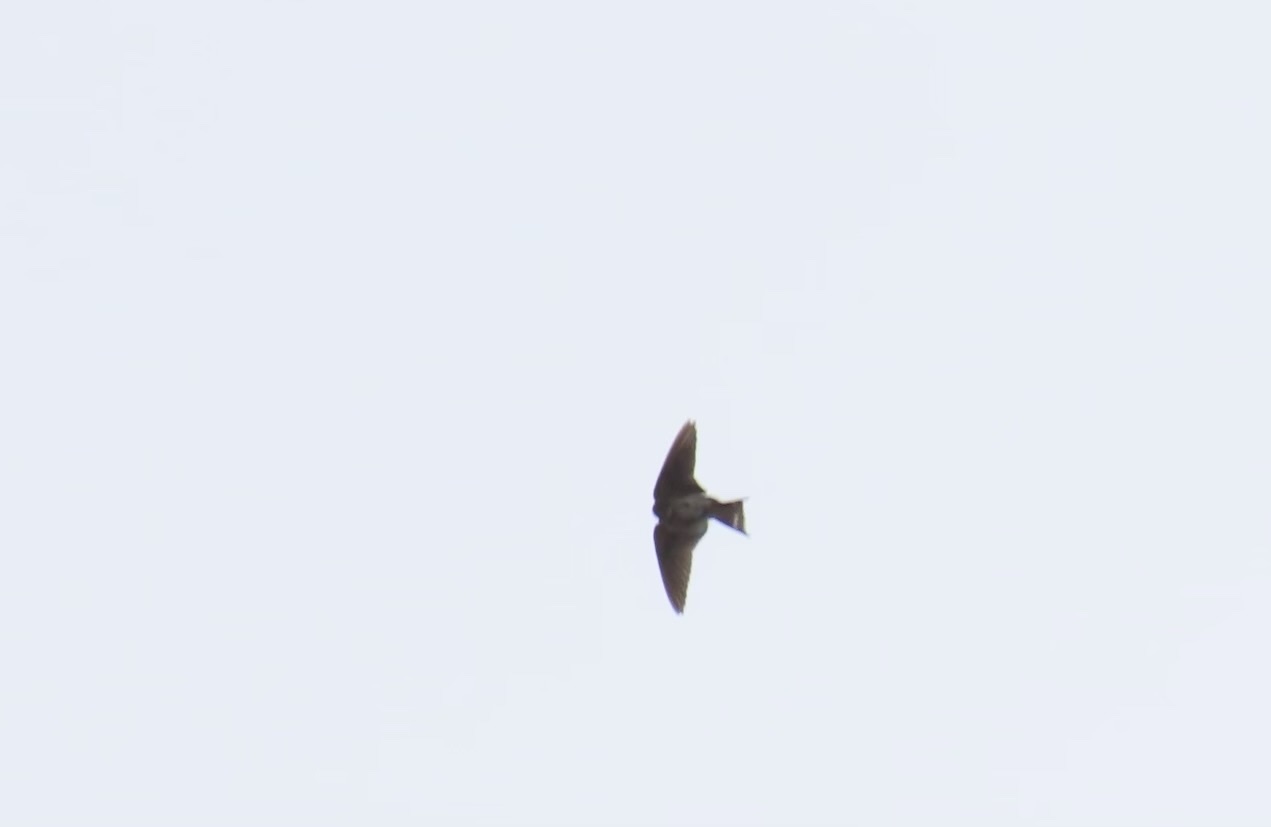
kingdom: Animalia
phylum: Chordata
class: Aves
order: Passeriformes
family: Hirundinidae
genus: Hirundo
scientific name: Hirundo rustica
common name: Barn swallow
